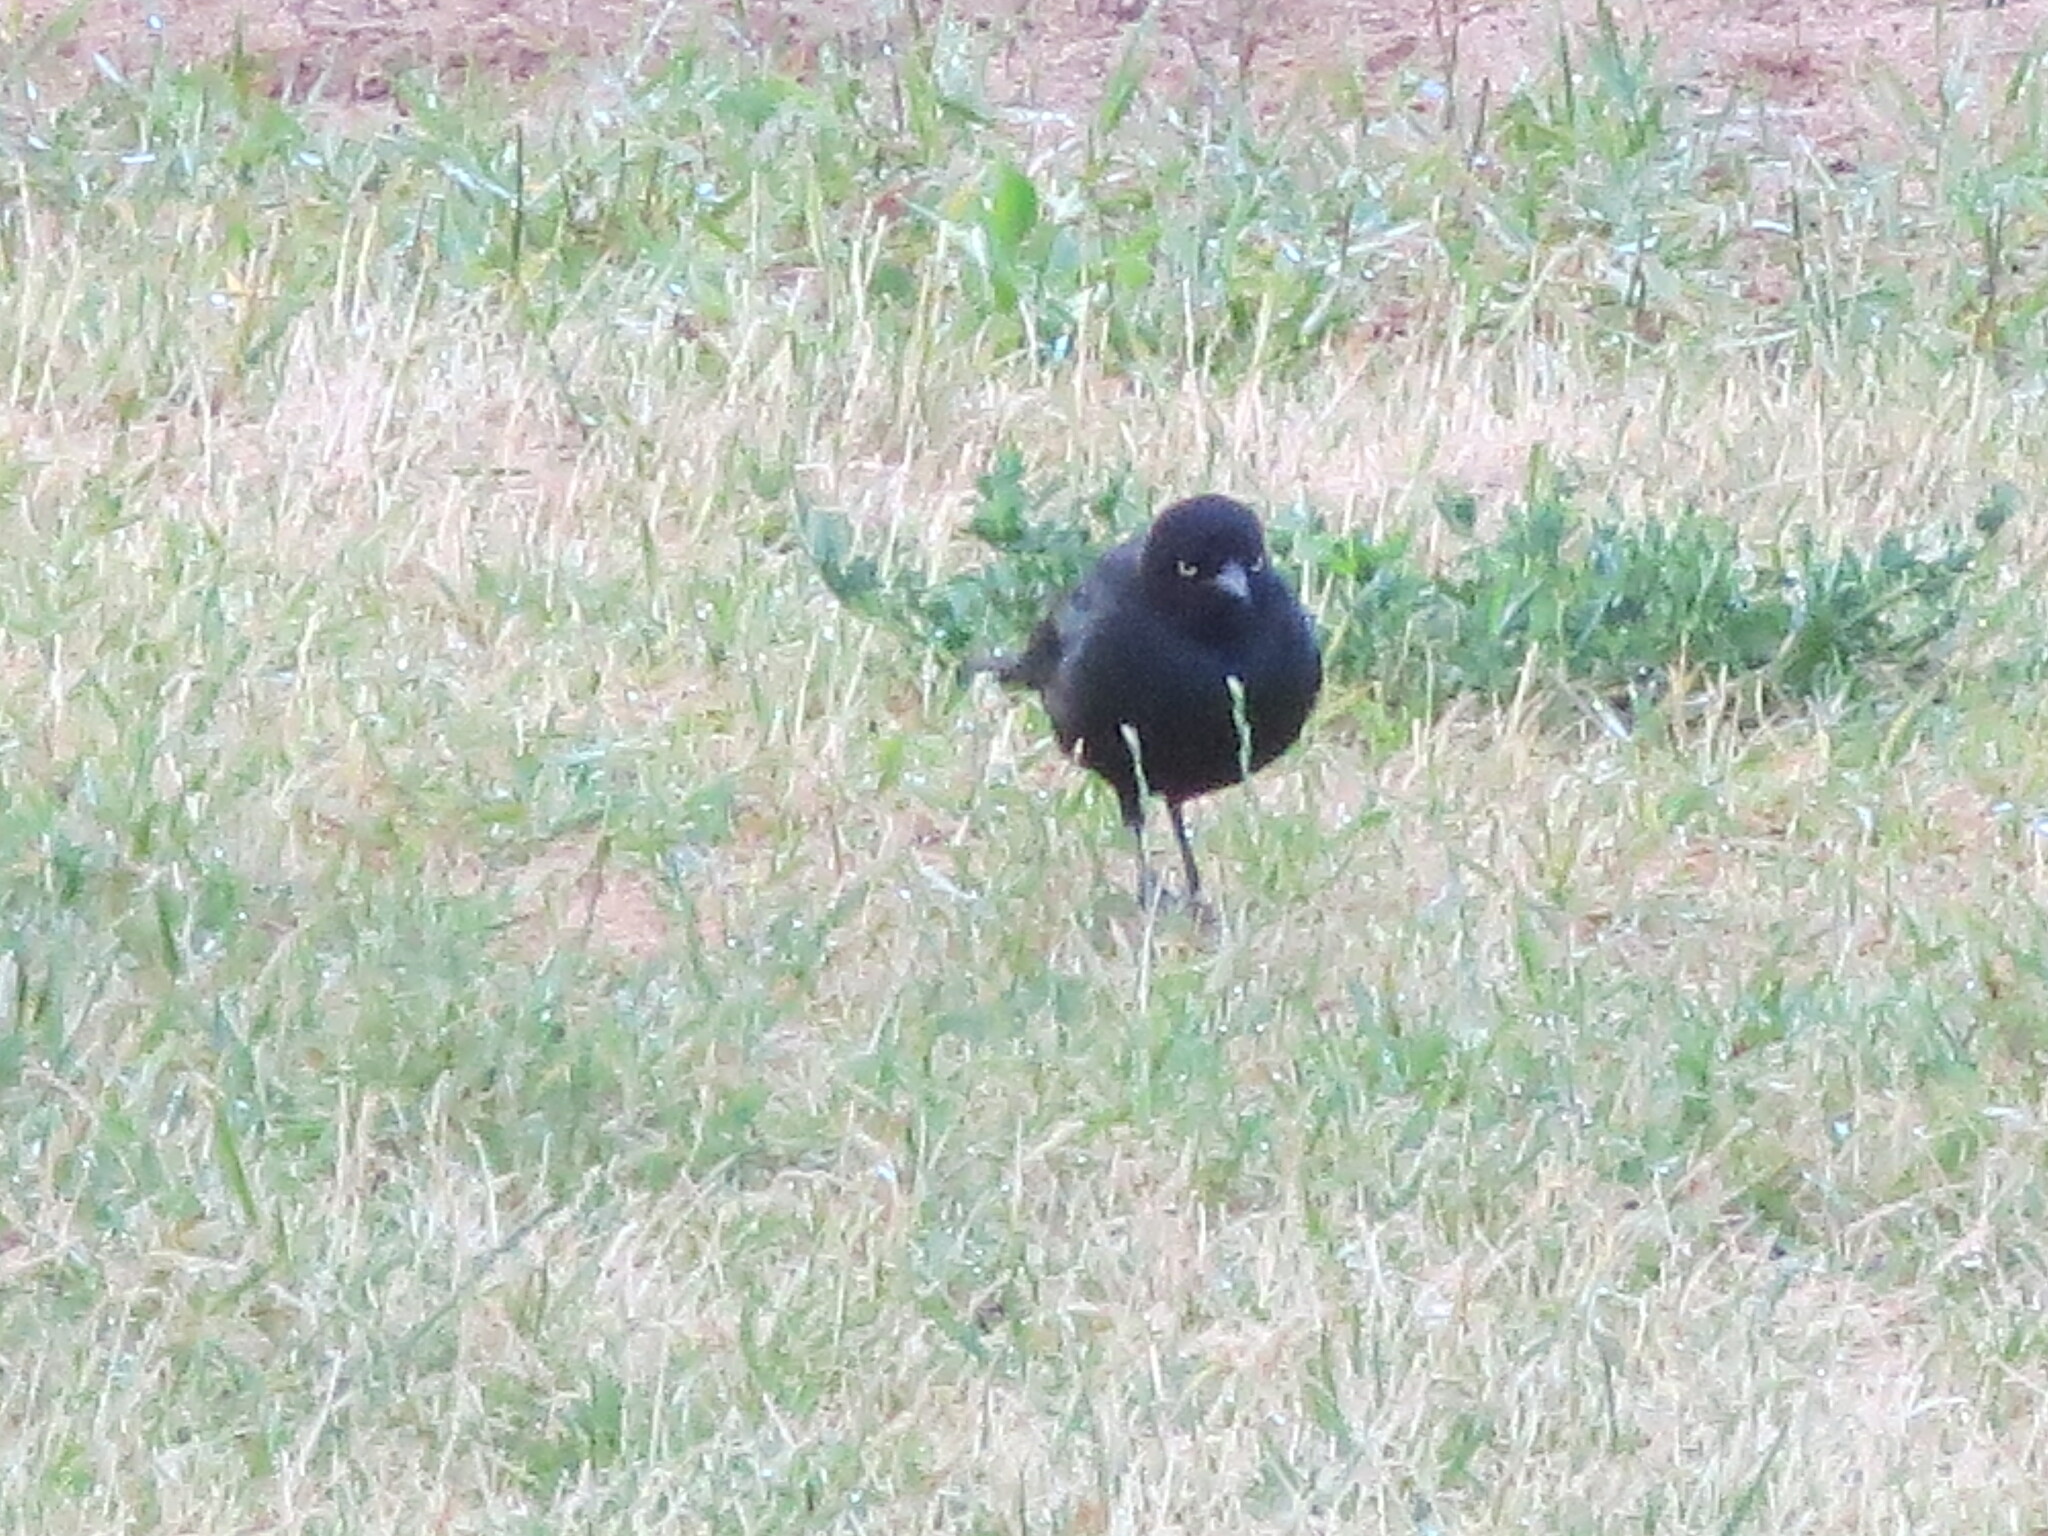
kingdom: Animalia
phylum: Chordata
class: Aves
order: Passeriformes
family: Icteridae
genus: Euphagus
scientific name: Euphagus cyanocephalus
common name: Brewer's blackbird
